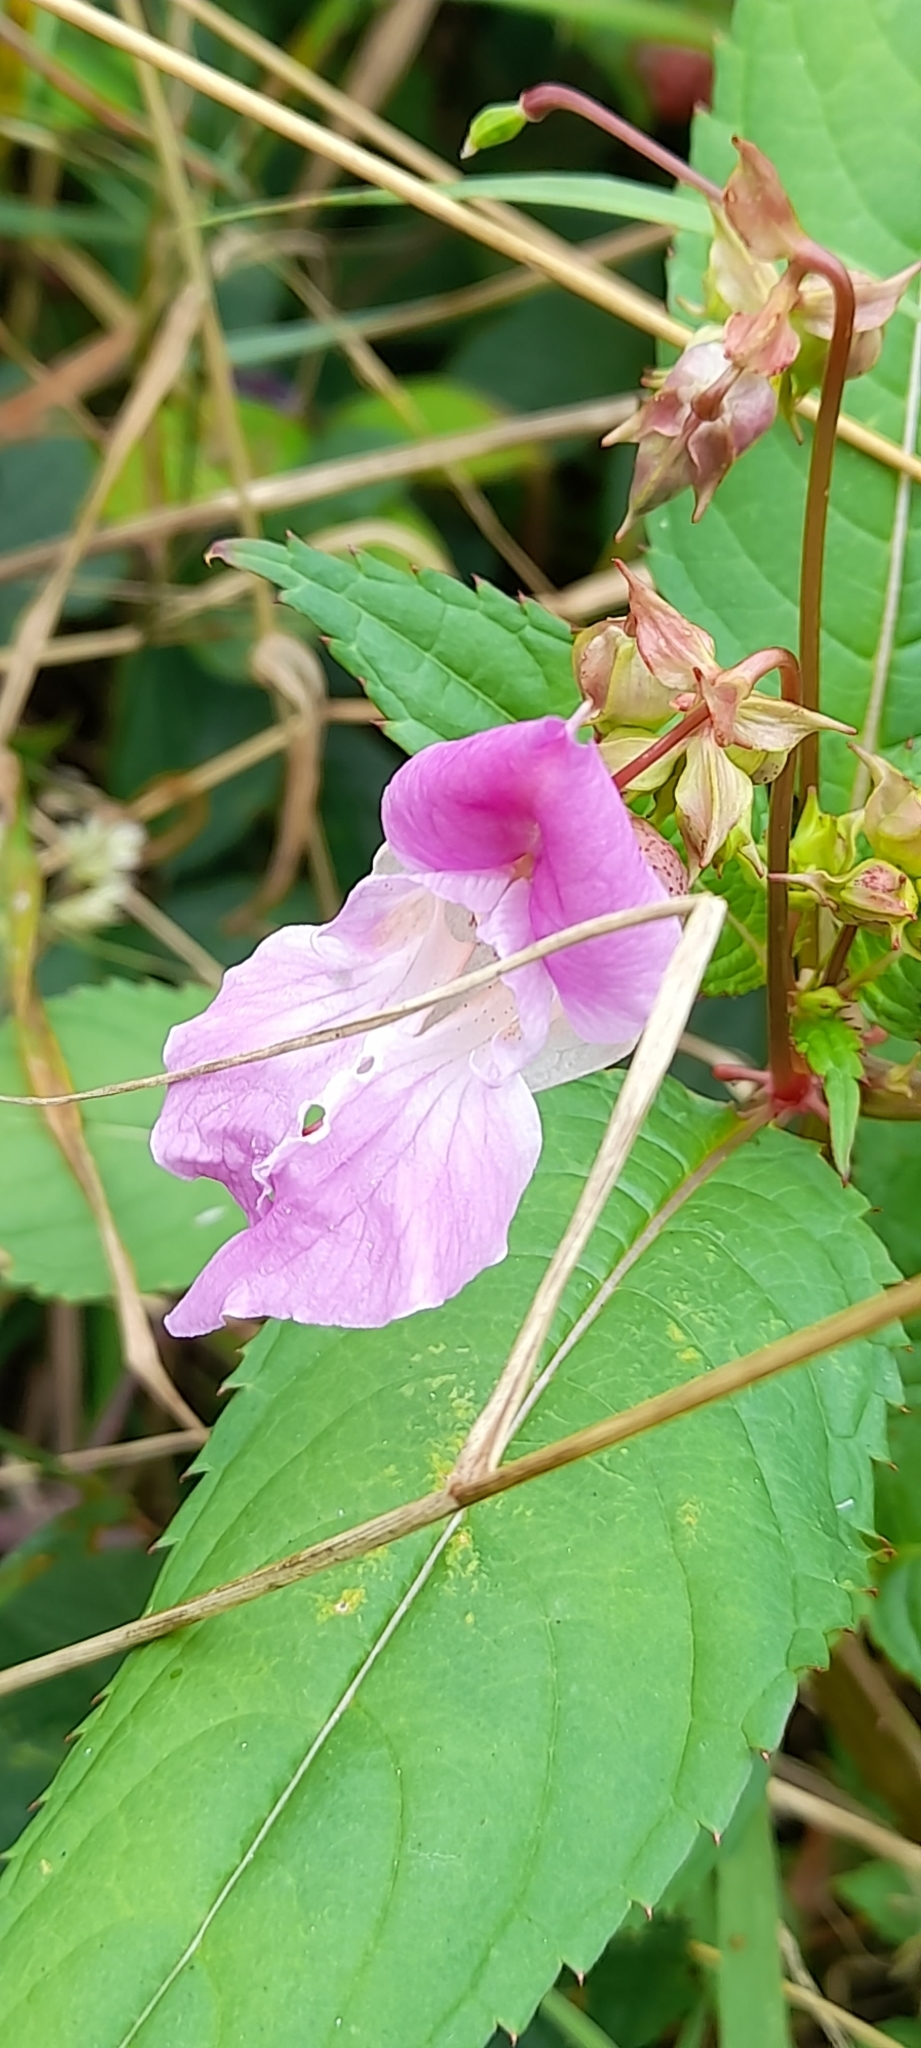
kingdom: Plantae
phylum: Tracheophyta
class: Magnoliopsida
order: Ericales
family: Balsaminaceae
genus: Impatiens
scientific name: Impatiens glandulifera
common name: Himalayan balsam
